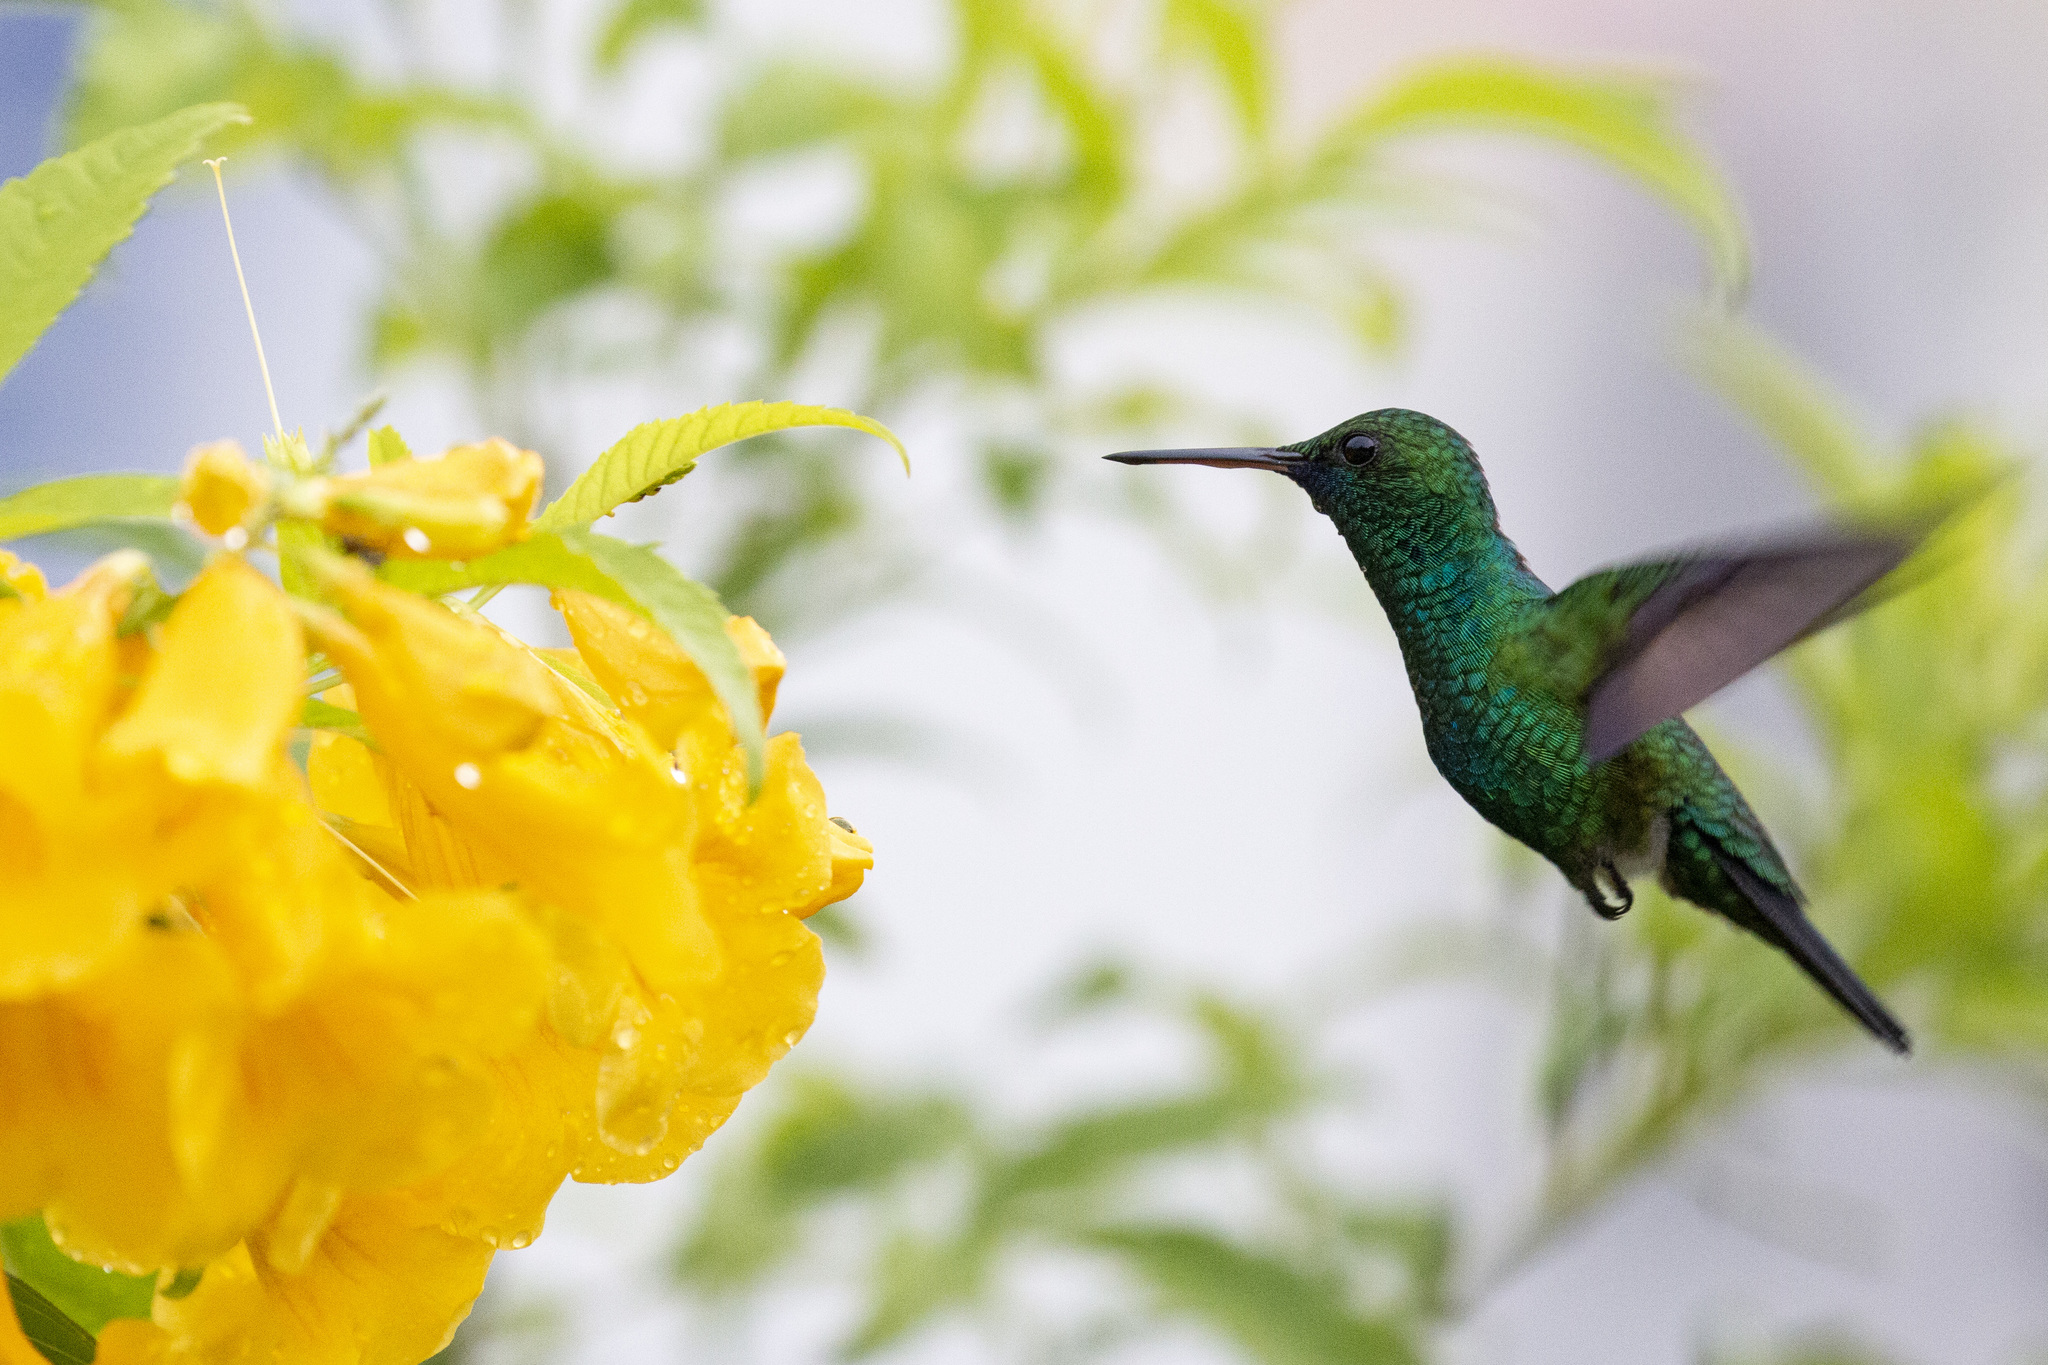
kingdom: Animalia
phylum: Chordata
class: Aves
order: Apodiformes
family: Trochilidae
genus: Chlorestes
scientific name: Chlorestes notata
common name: Blue-chinned sapphire
